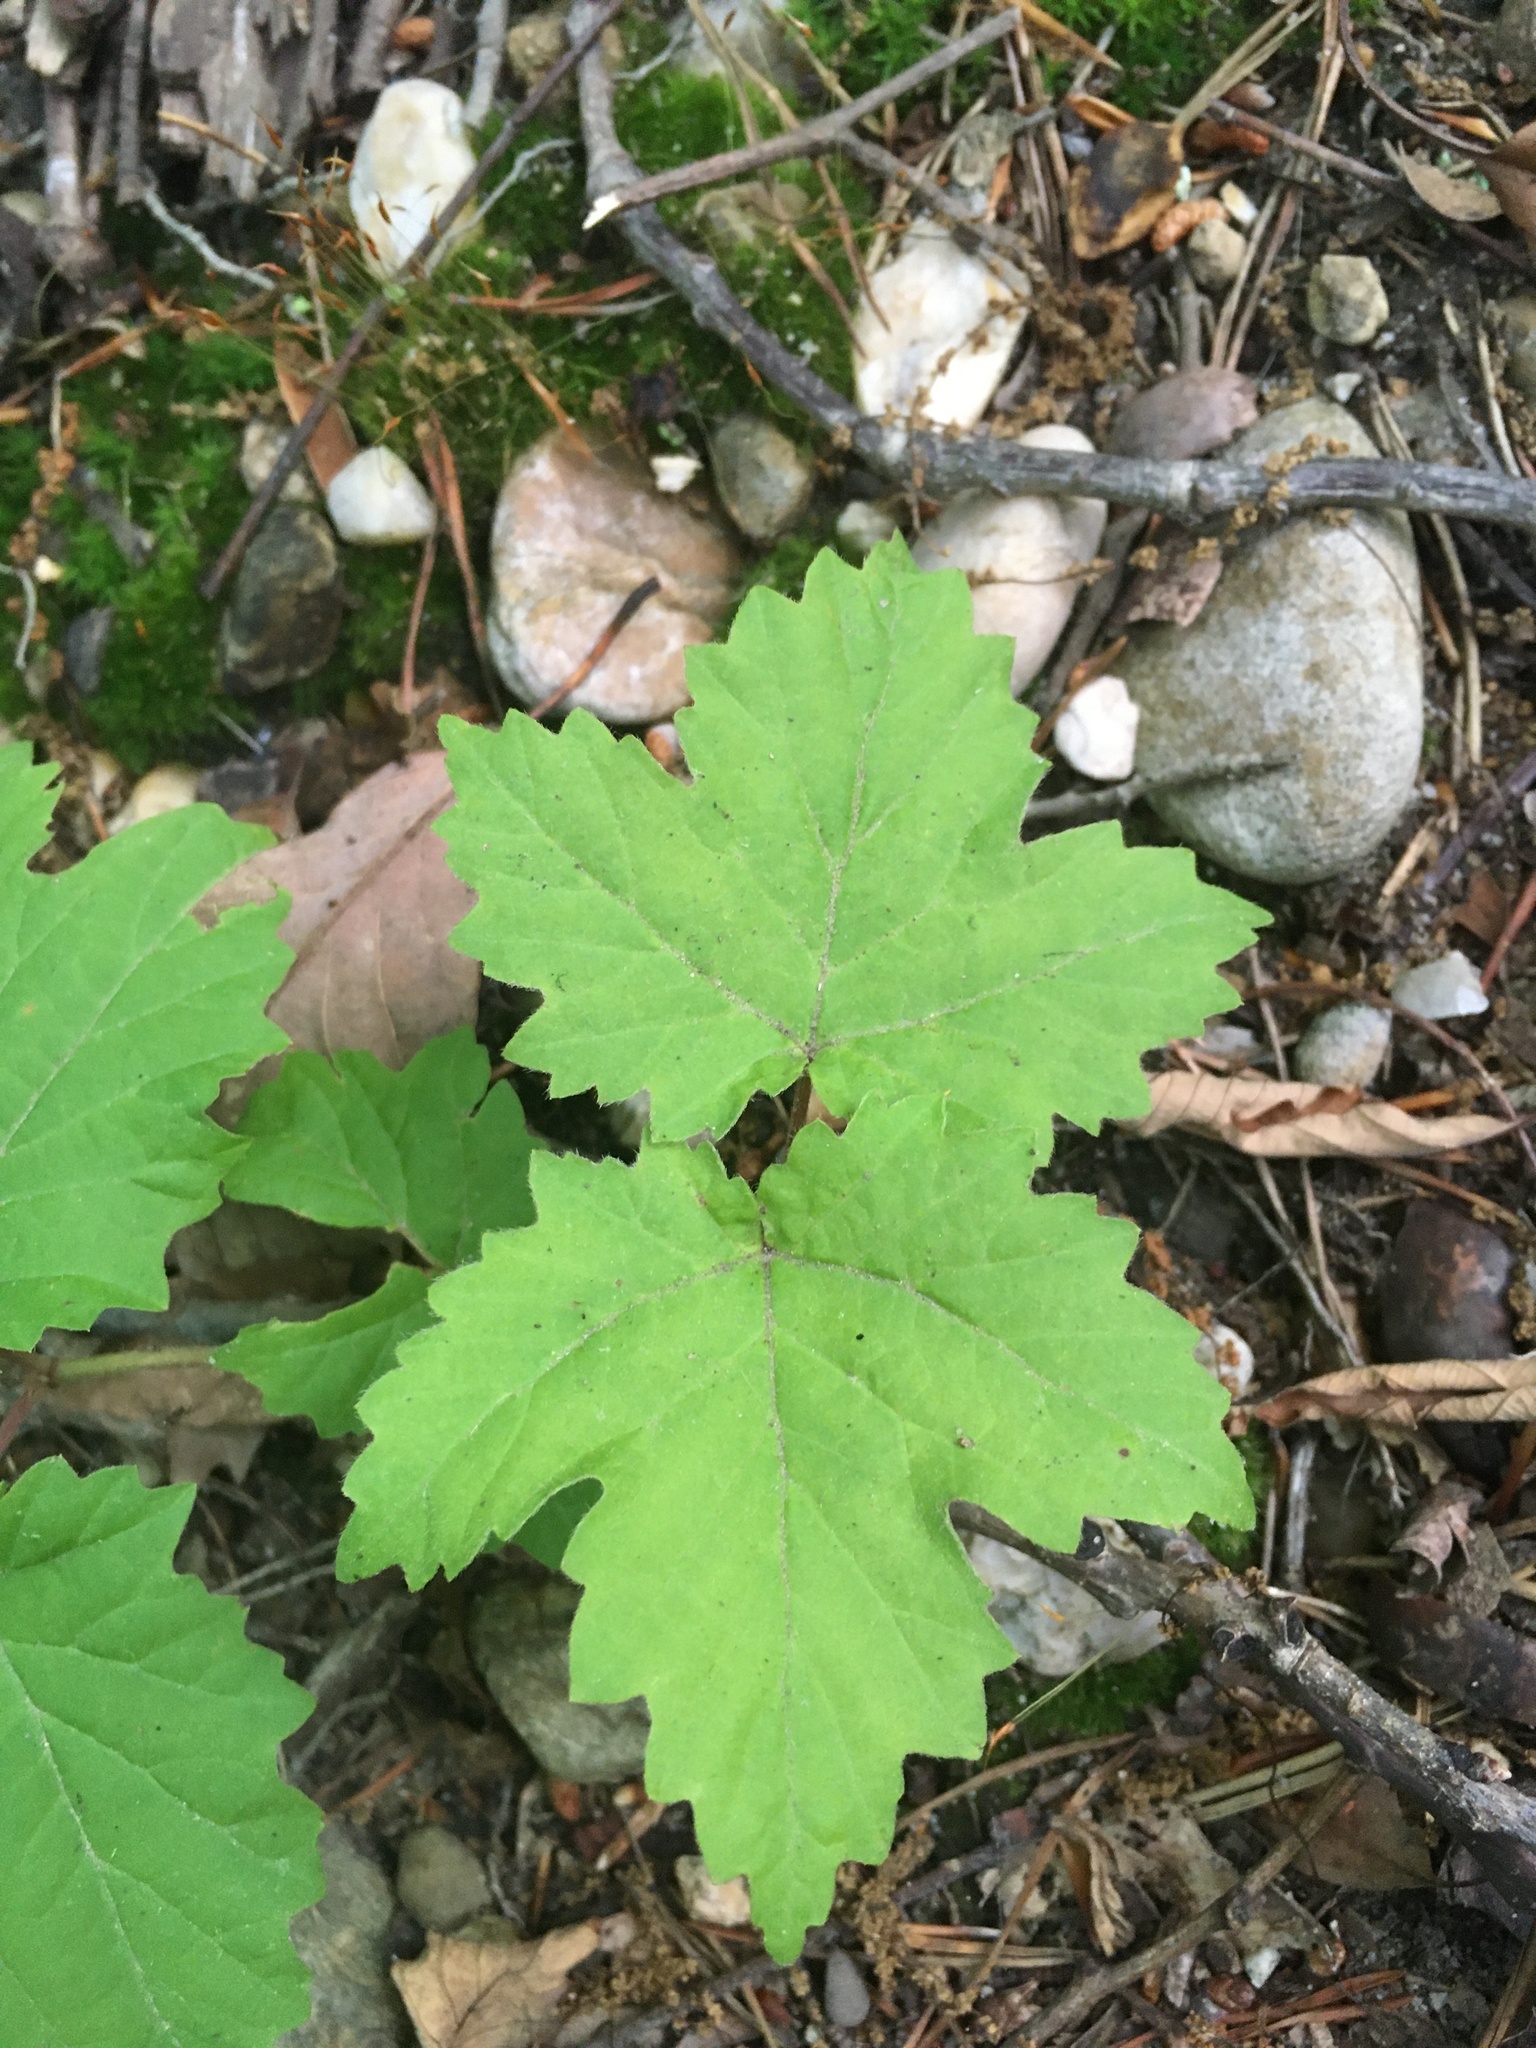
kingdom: Plantae
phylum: Tracheophyta
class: Magnoliopsida
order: Dipsacales
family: Viburnaceae
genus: Viburnum
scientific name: Viburnum acerifolium
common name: Dockmackie
